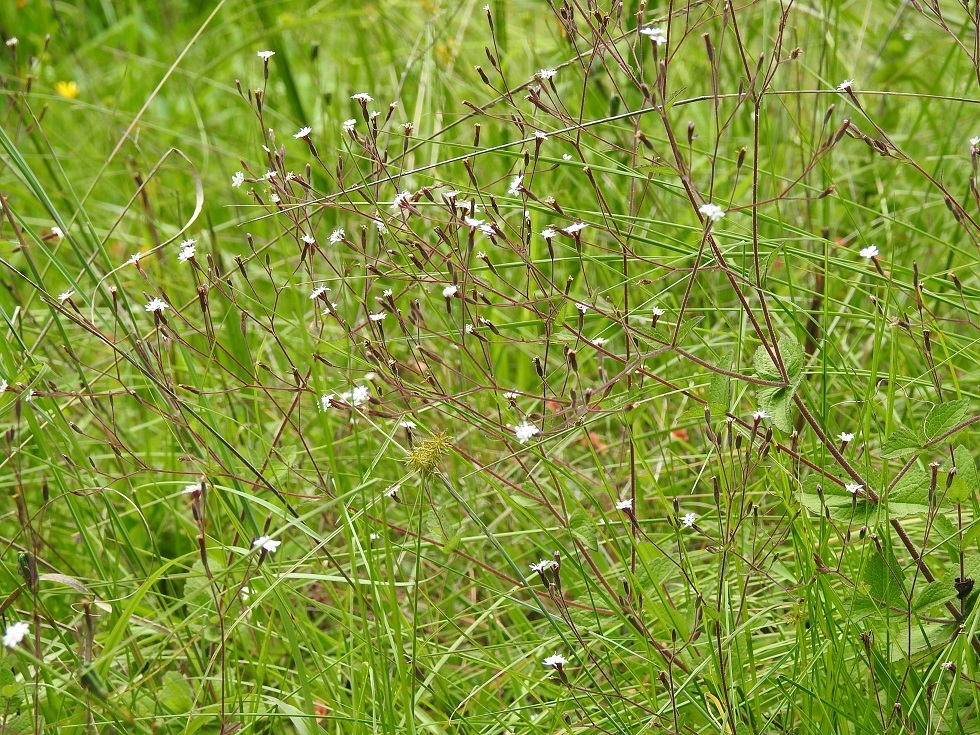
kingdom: Plantae
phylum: Tracheophyta
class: Magnoliopsida
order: Asterales
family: Asteraceae
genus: Stevia
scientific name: Stevia elatior
